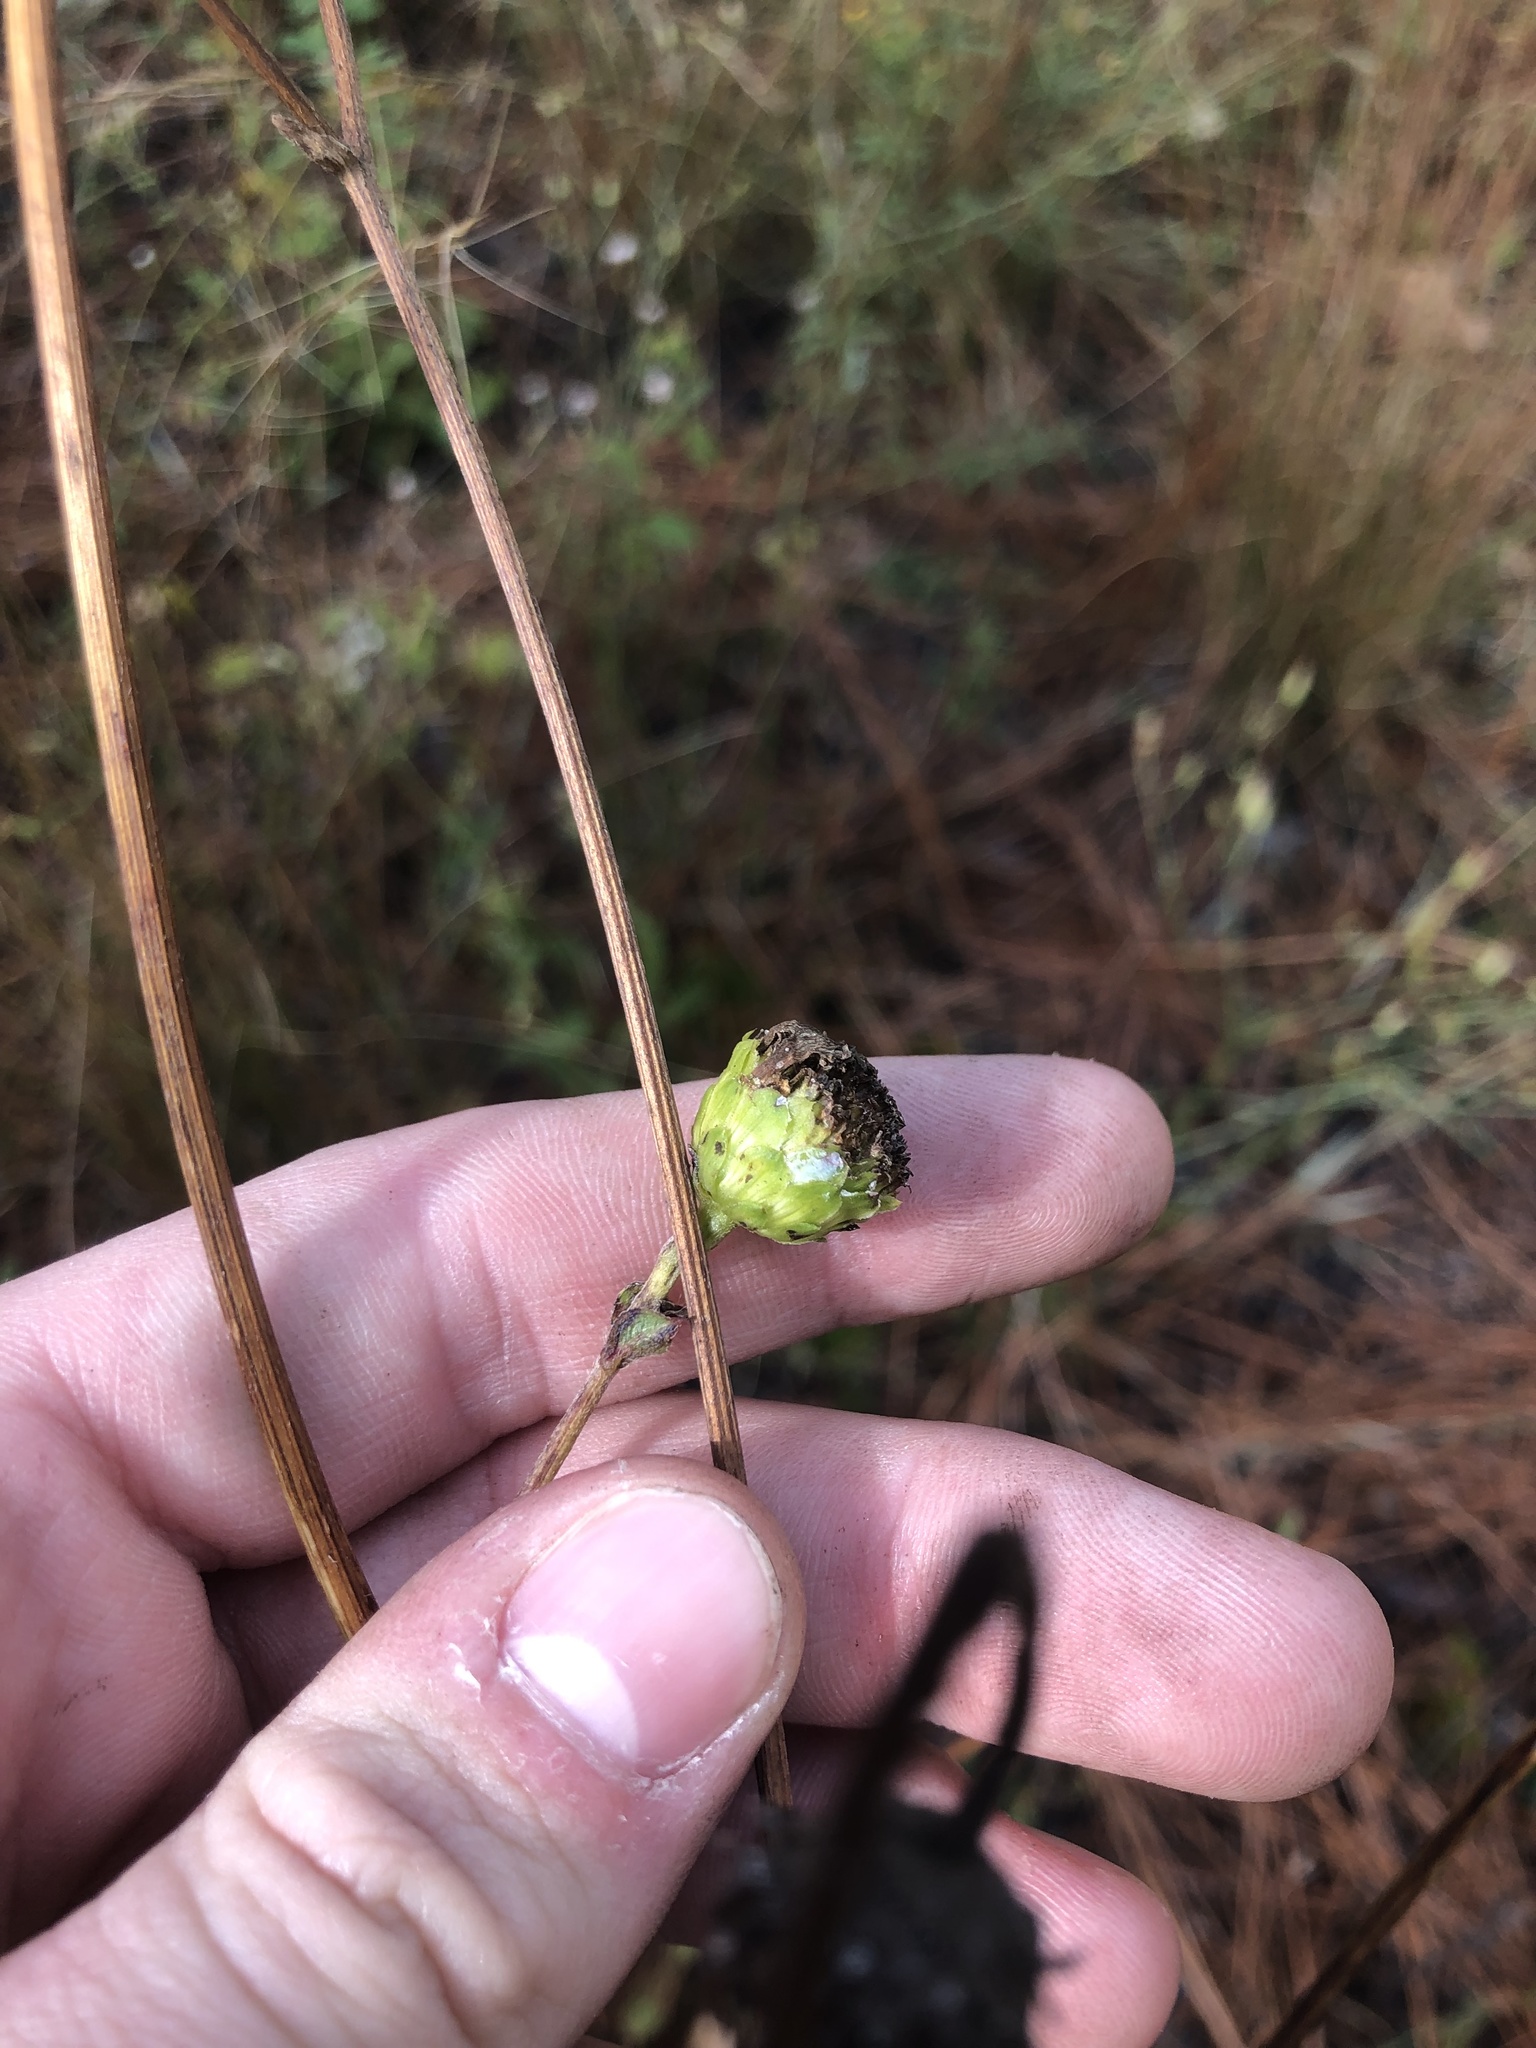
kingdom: Plantae
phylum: Tracheophyta
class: Magnoliopsida
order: Asterales
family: Asteraceae
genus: Helianthus
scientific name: Helianthus atrorubens
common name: Dark-eyed sunflower
